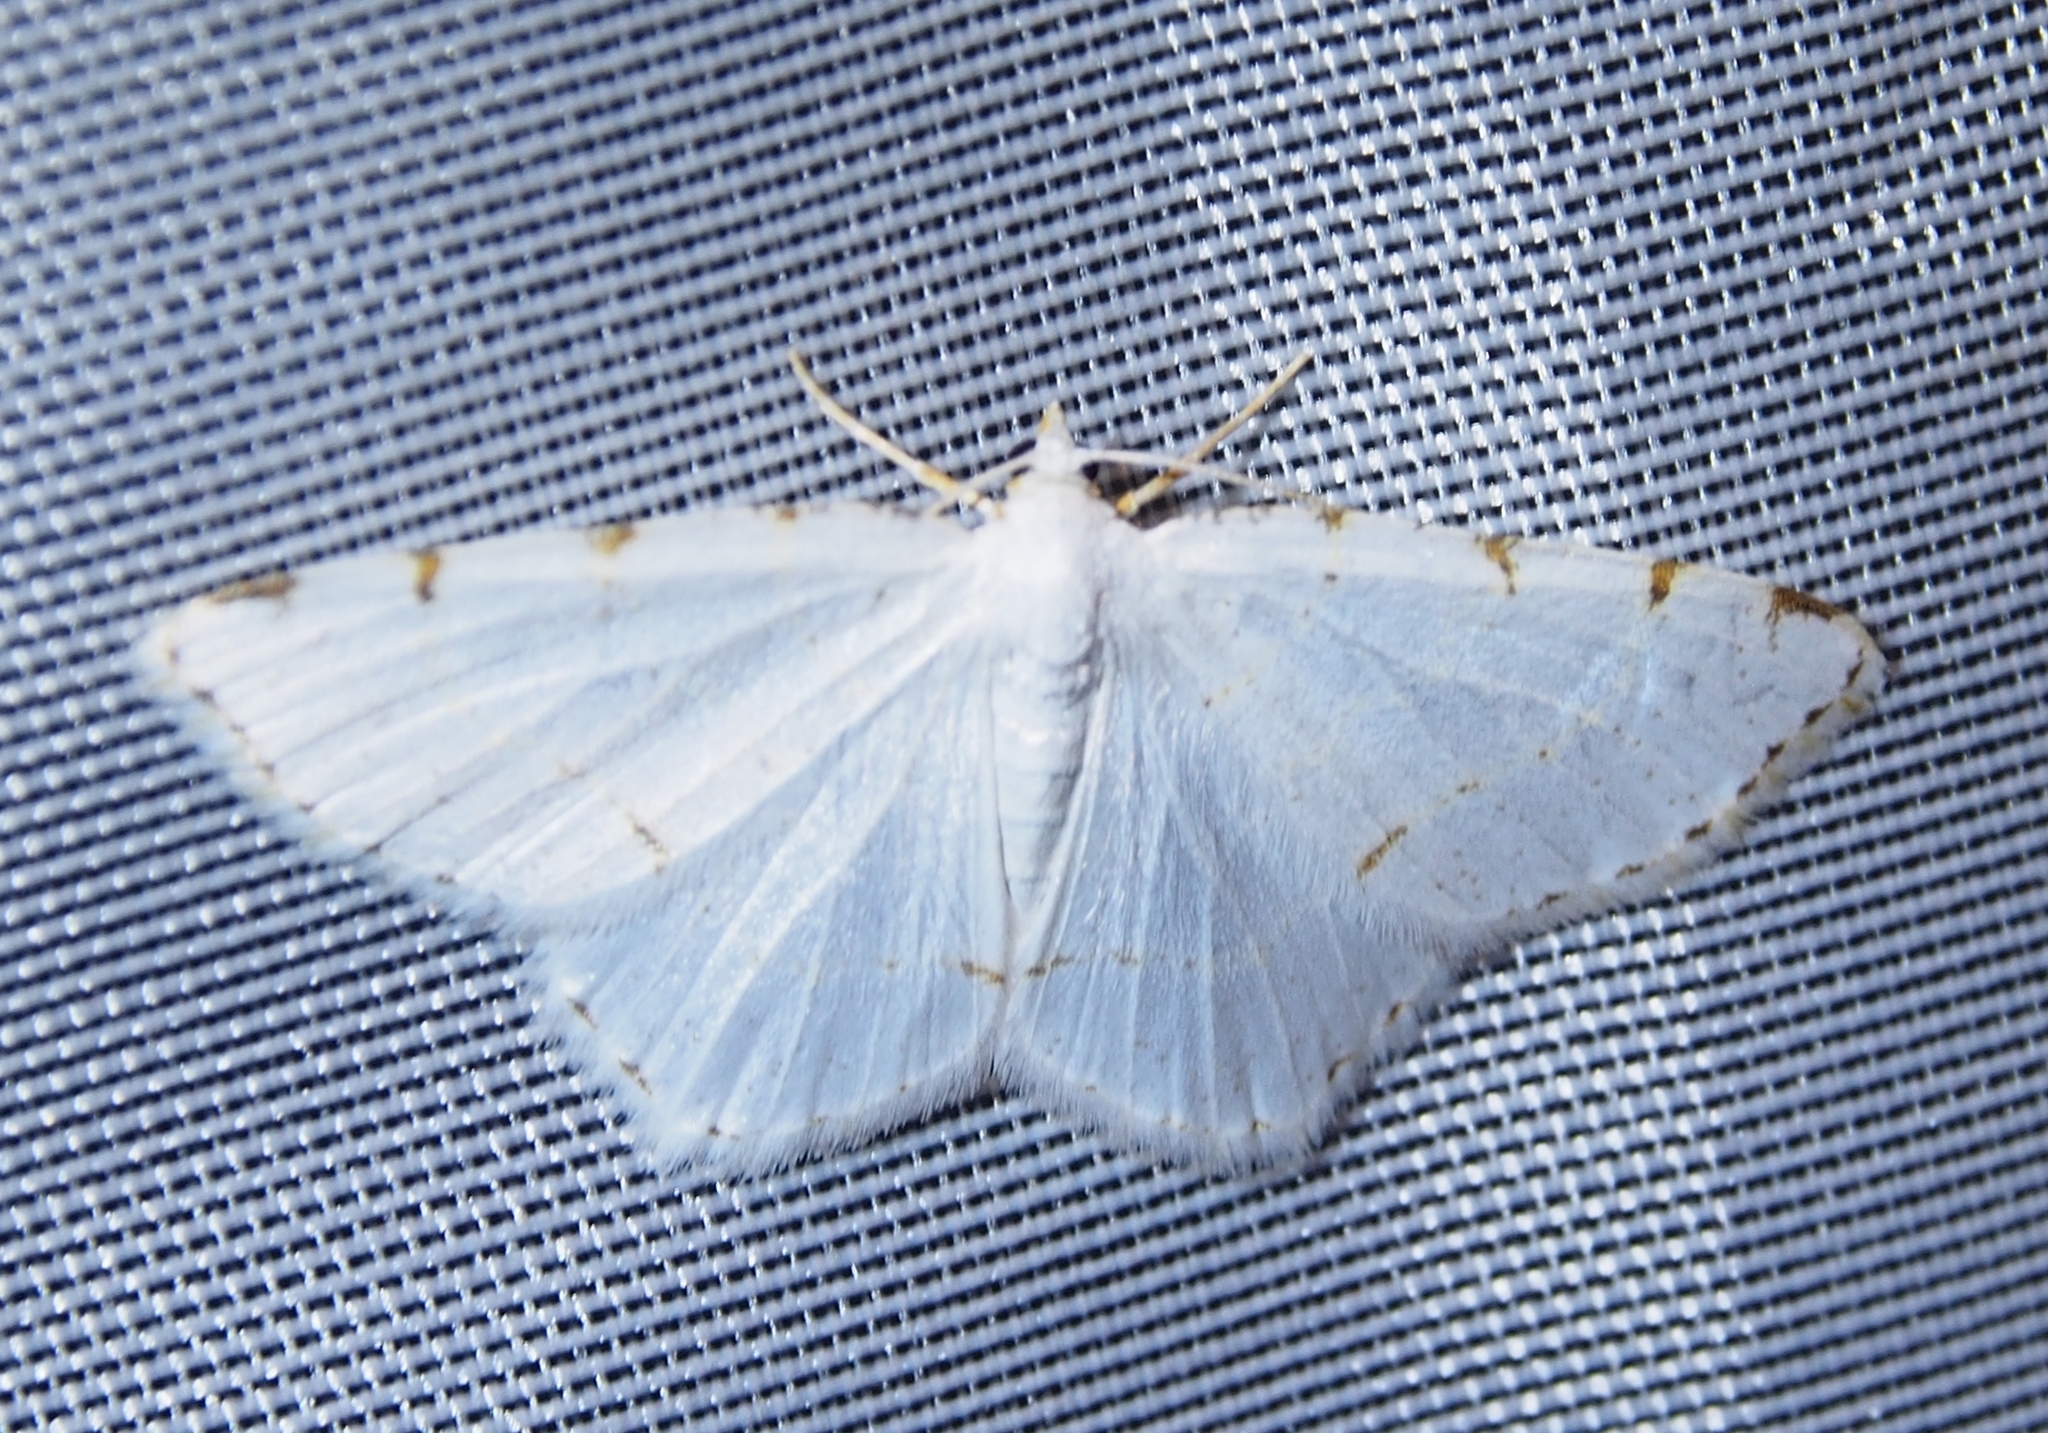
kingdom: Animalia
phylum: Arthropoda
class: Insecta
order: Lepidoptera
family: Geometridae
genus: Macaria
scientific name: Macaria pustularia
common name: Lesser maple spanworm moth
